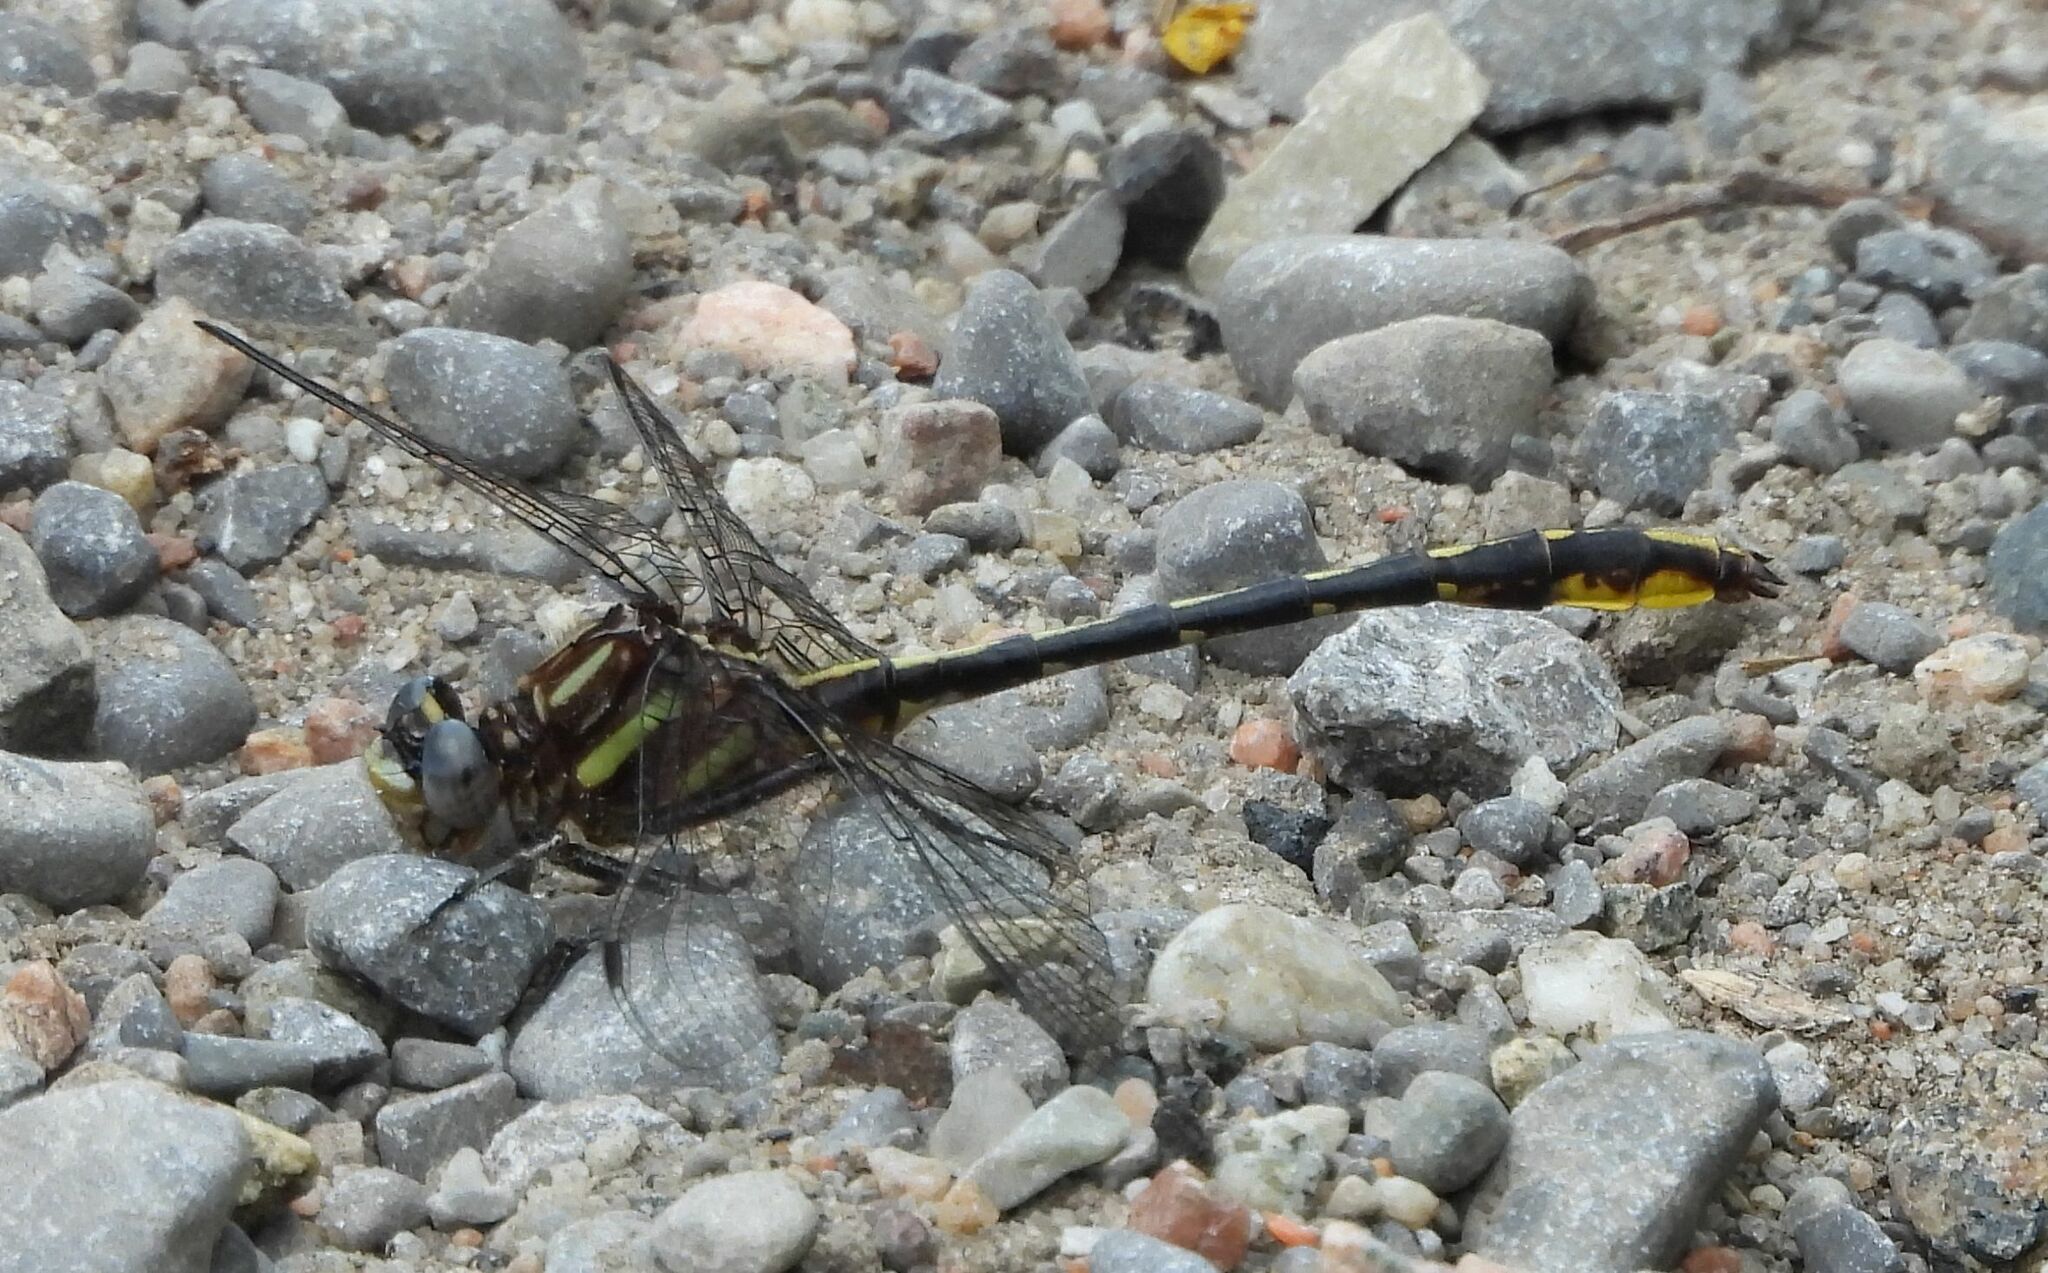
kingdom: Animalia
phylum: Arthropoda
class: Insecta
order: Odonata
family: Gomphidae
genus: Phanogomphus
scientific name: Phanogomphus exilis
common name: Lancet clubtail
